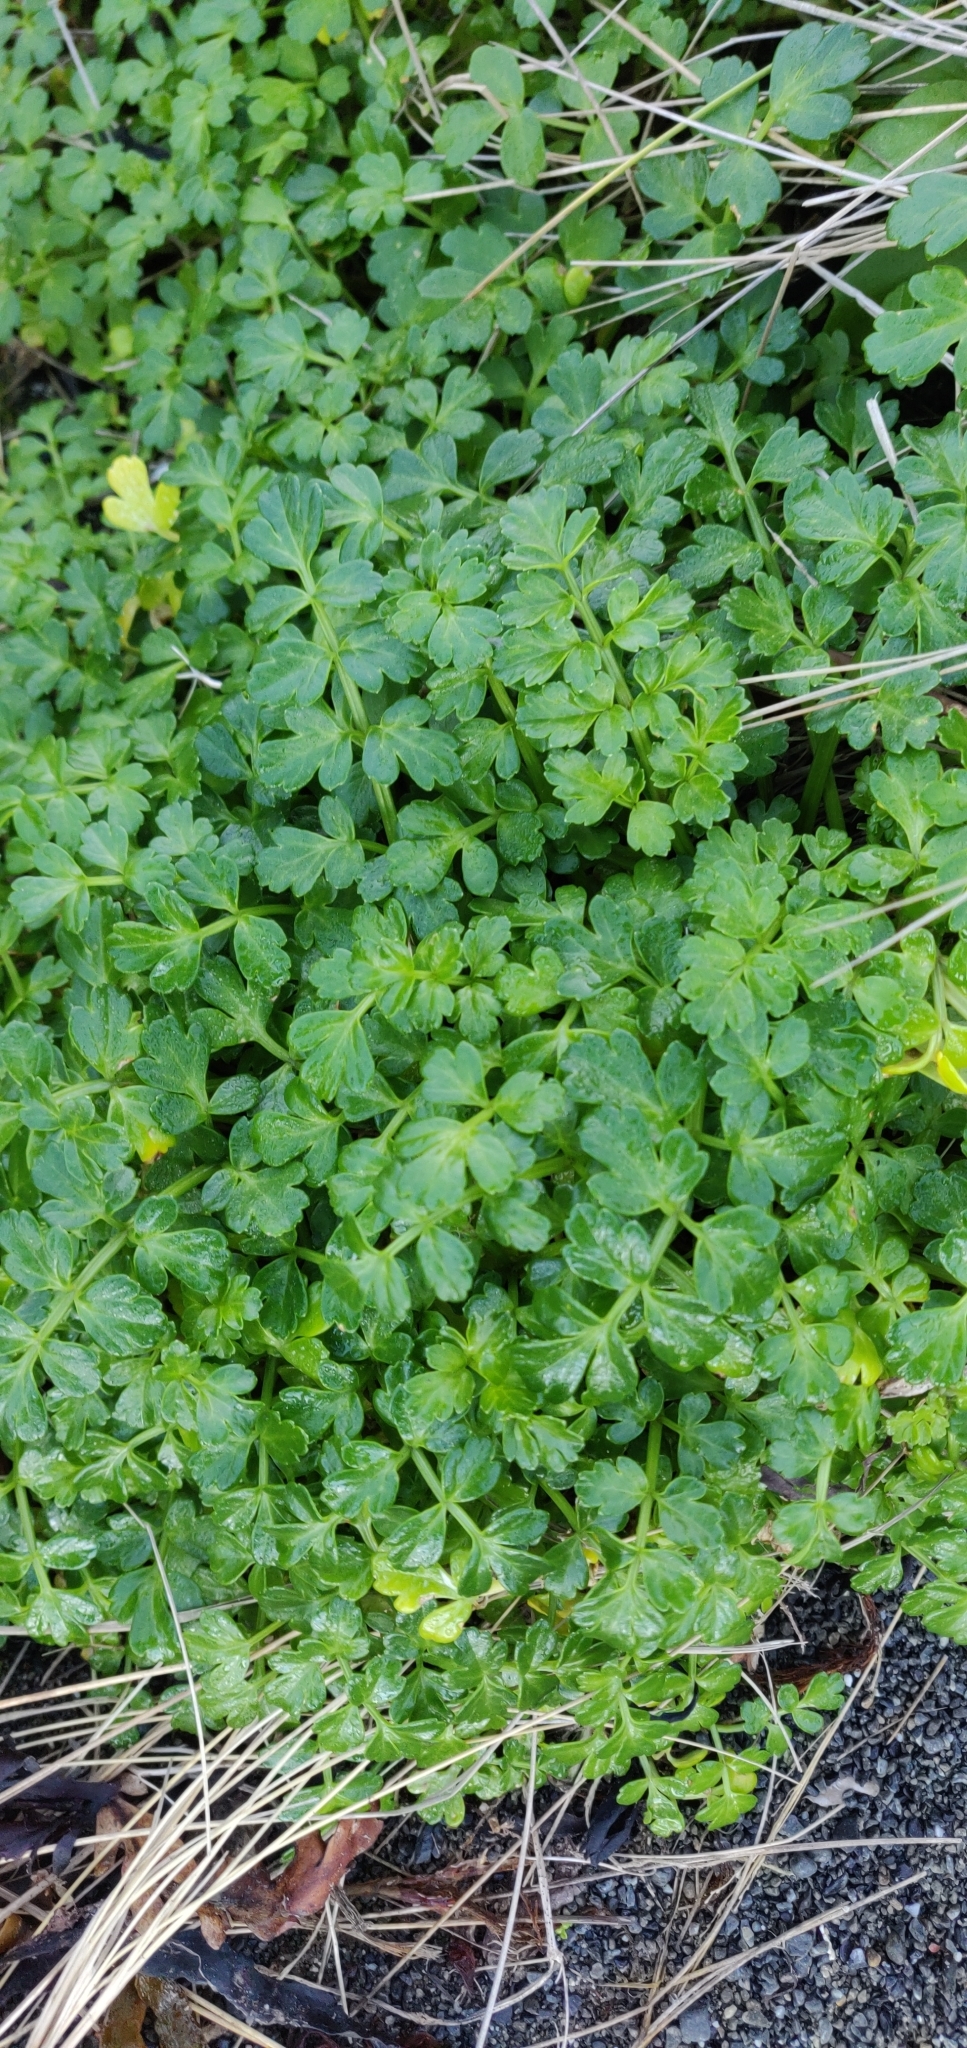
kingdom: Plantae
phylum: Tracheophyta
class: Magnoliopsida
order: Apiales
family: Apiaceae
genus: Apium
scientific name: Apium prostratum
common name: Prostrate marshwort
